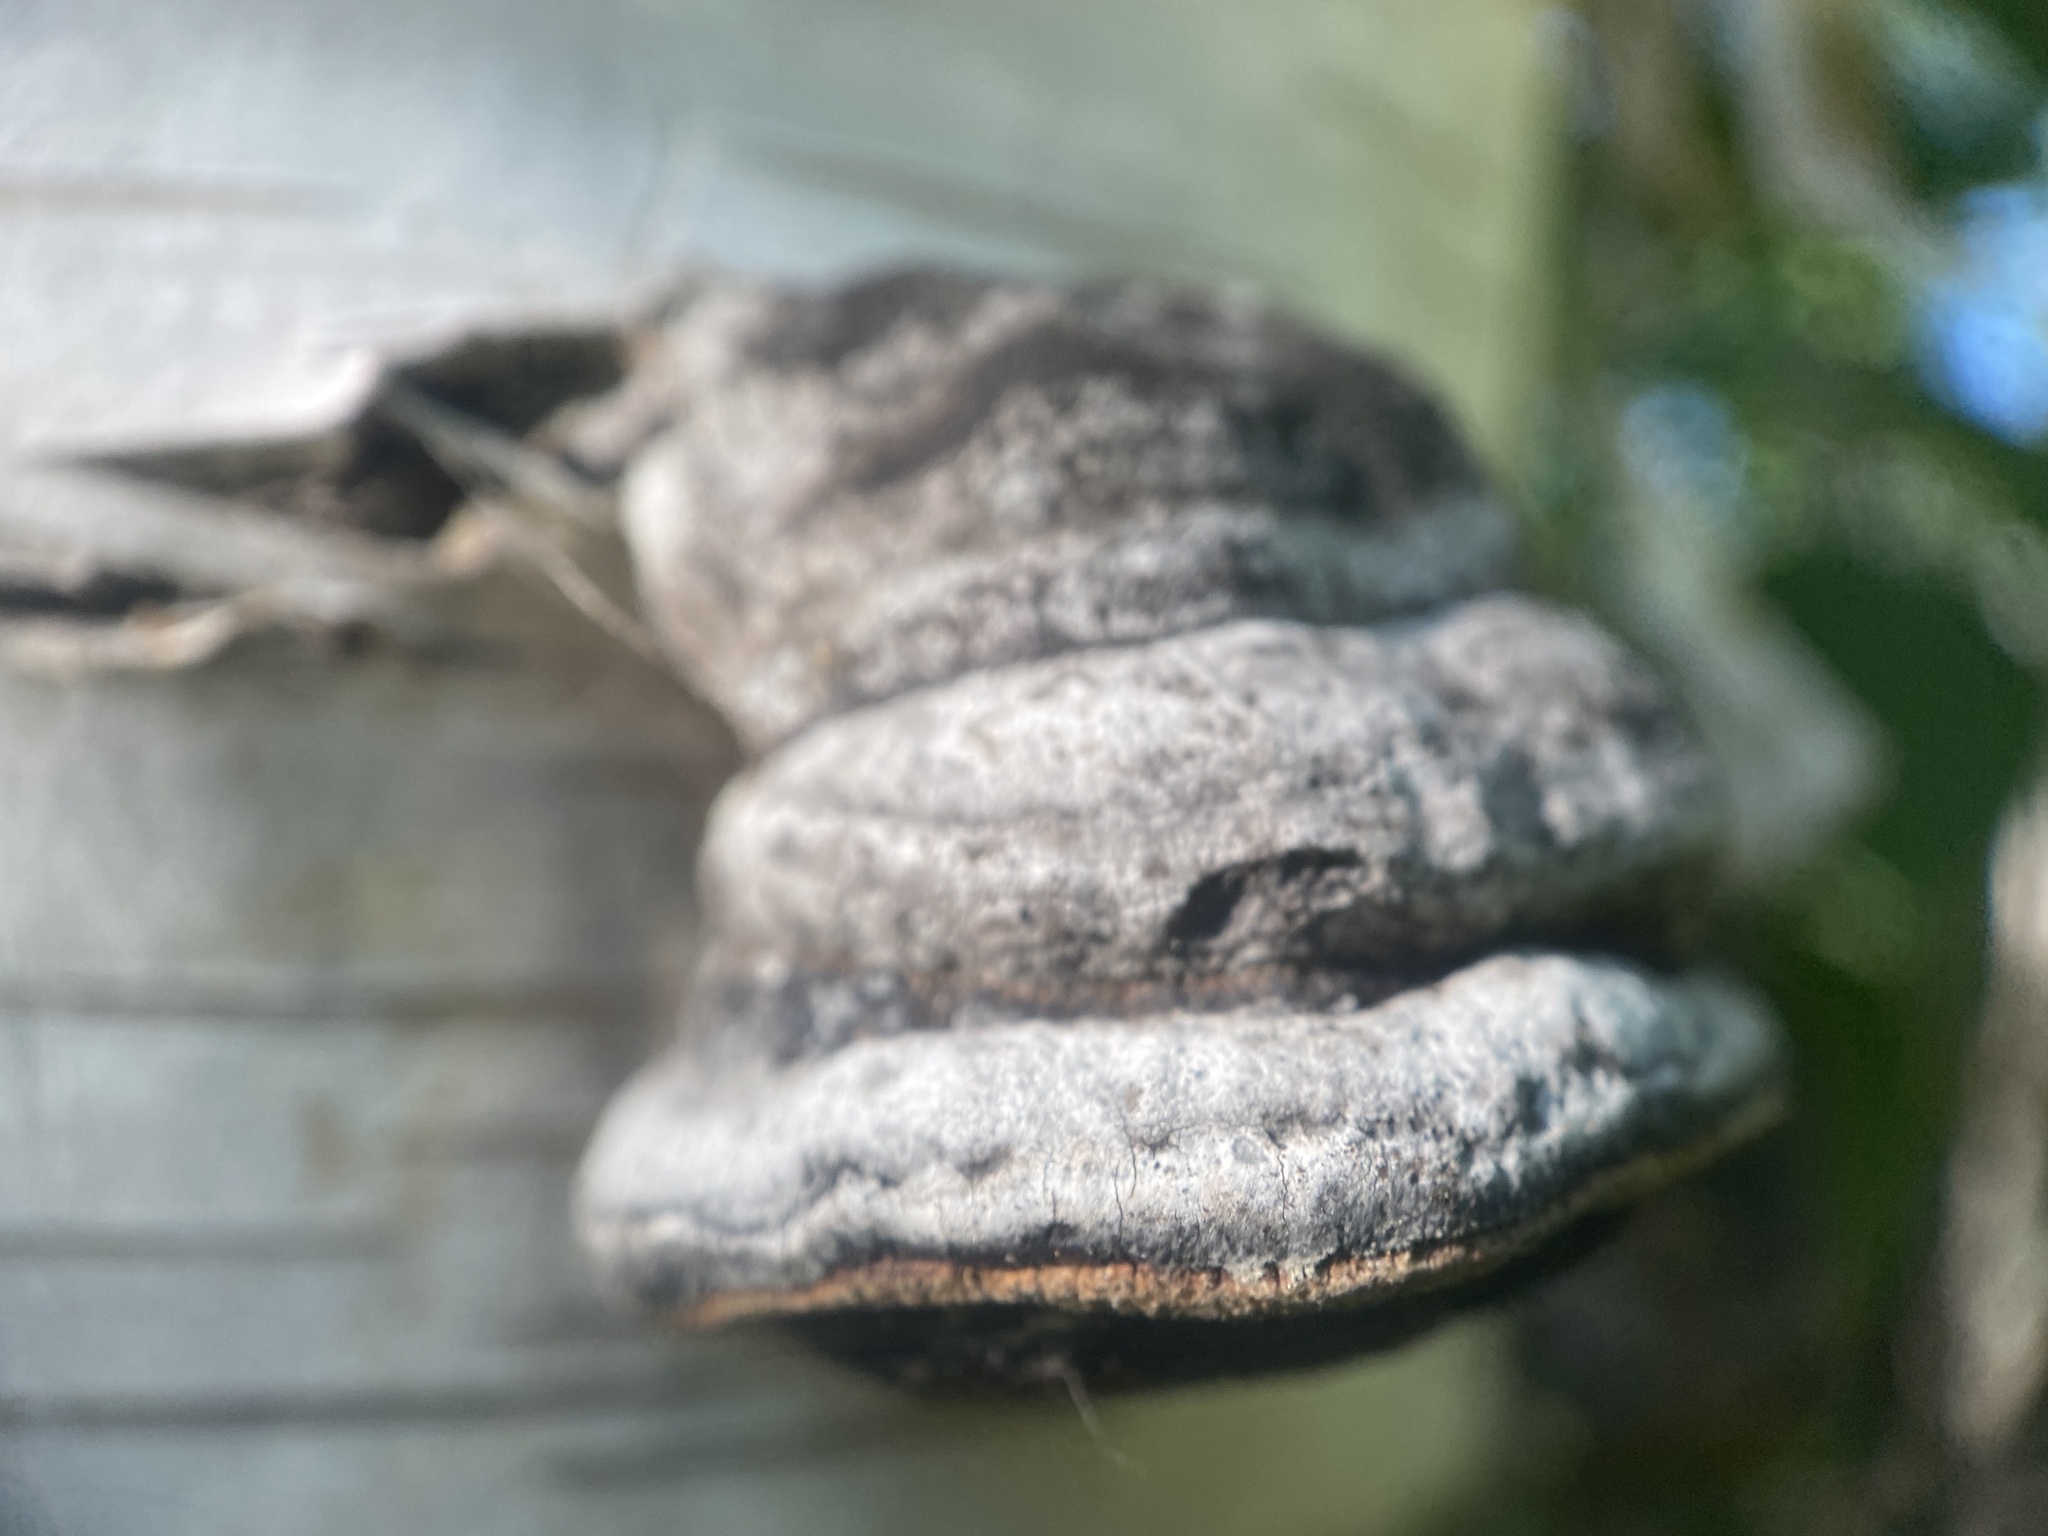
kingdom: Fungi
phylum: Basidiomycota
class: Agaricomycetes
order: Polyporales
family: Polyporaceae
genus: Fomes
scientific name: Fomes fomentarius
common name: Hoof fungus
